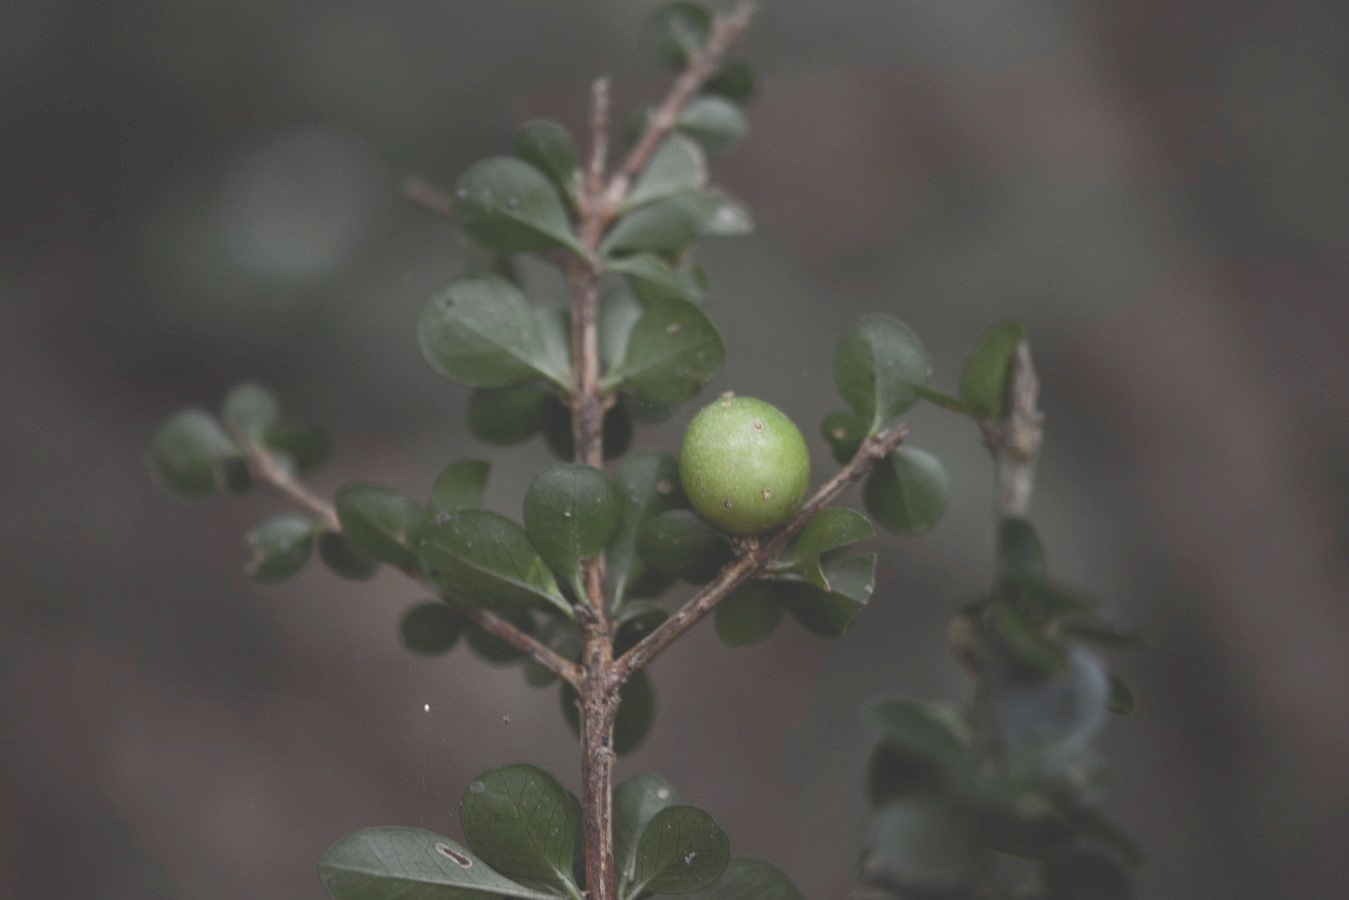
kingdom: Plantae
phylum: Tracheophyta
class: Magnoliopsida
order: Gentianales
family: Rubiaceae
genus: Randia
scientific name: Randia cookii
